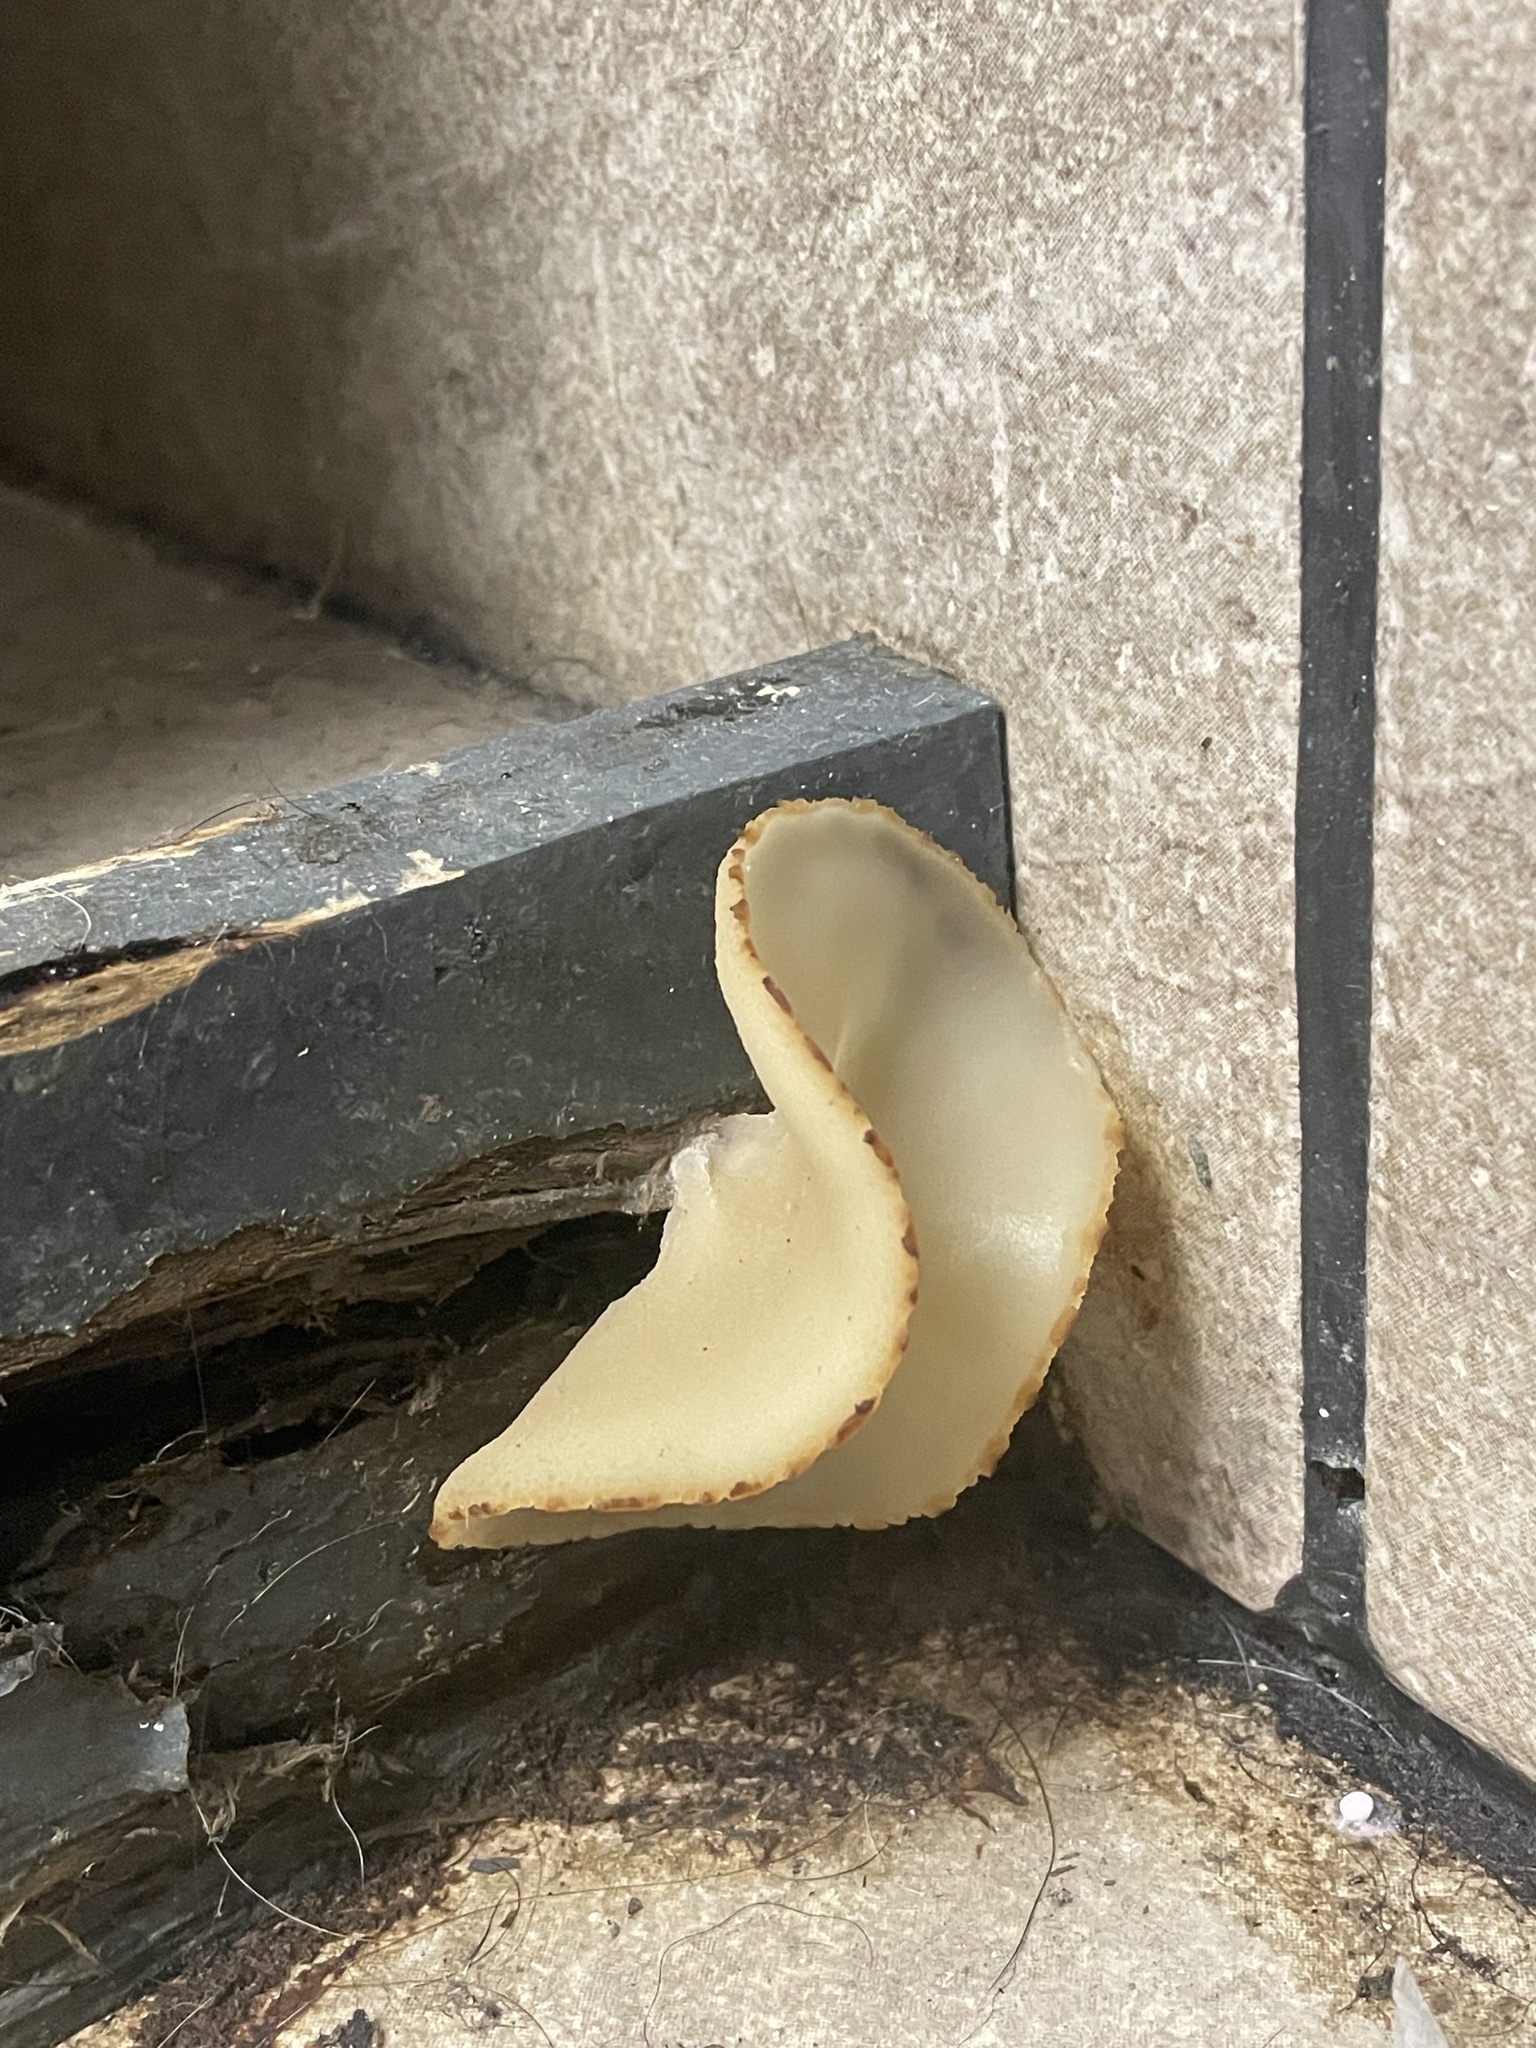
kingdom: Fungi
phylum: Ascomycota
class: Pezizomycetes
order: Pezizales
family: Pezizaceae
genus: Peziza
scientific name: Peziza domiciliana
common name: Home cup
